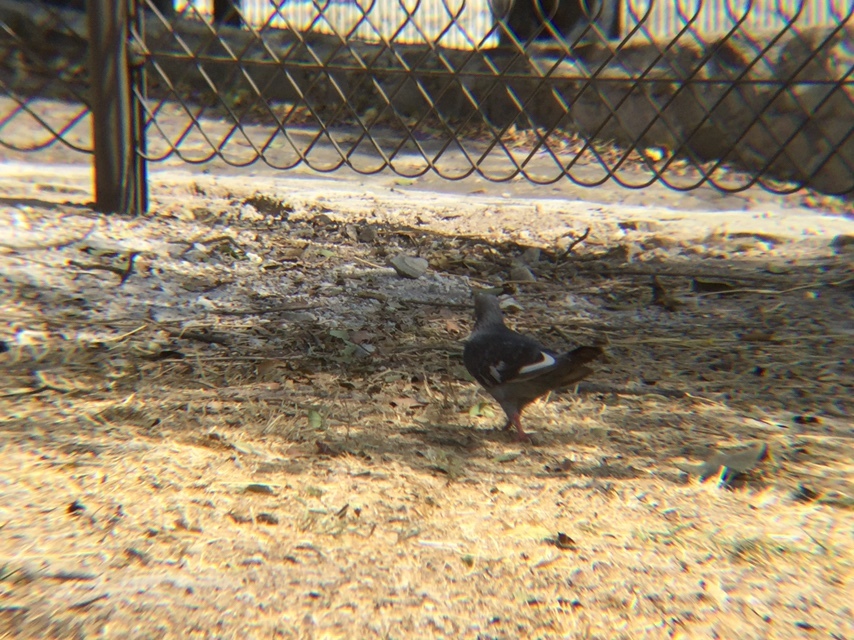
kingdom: Animalia
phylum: Chordata
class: Aves
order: Columbiformes
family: Columbidae
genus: Columba
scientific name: Columba livia
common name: Rock pigeon
